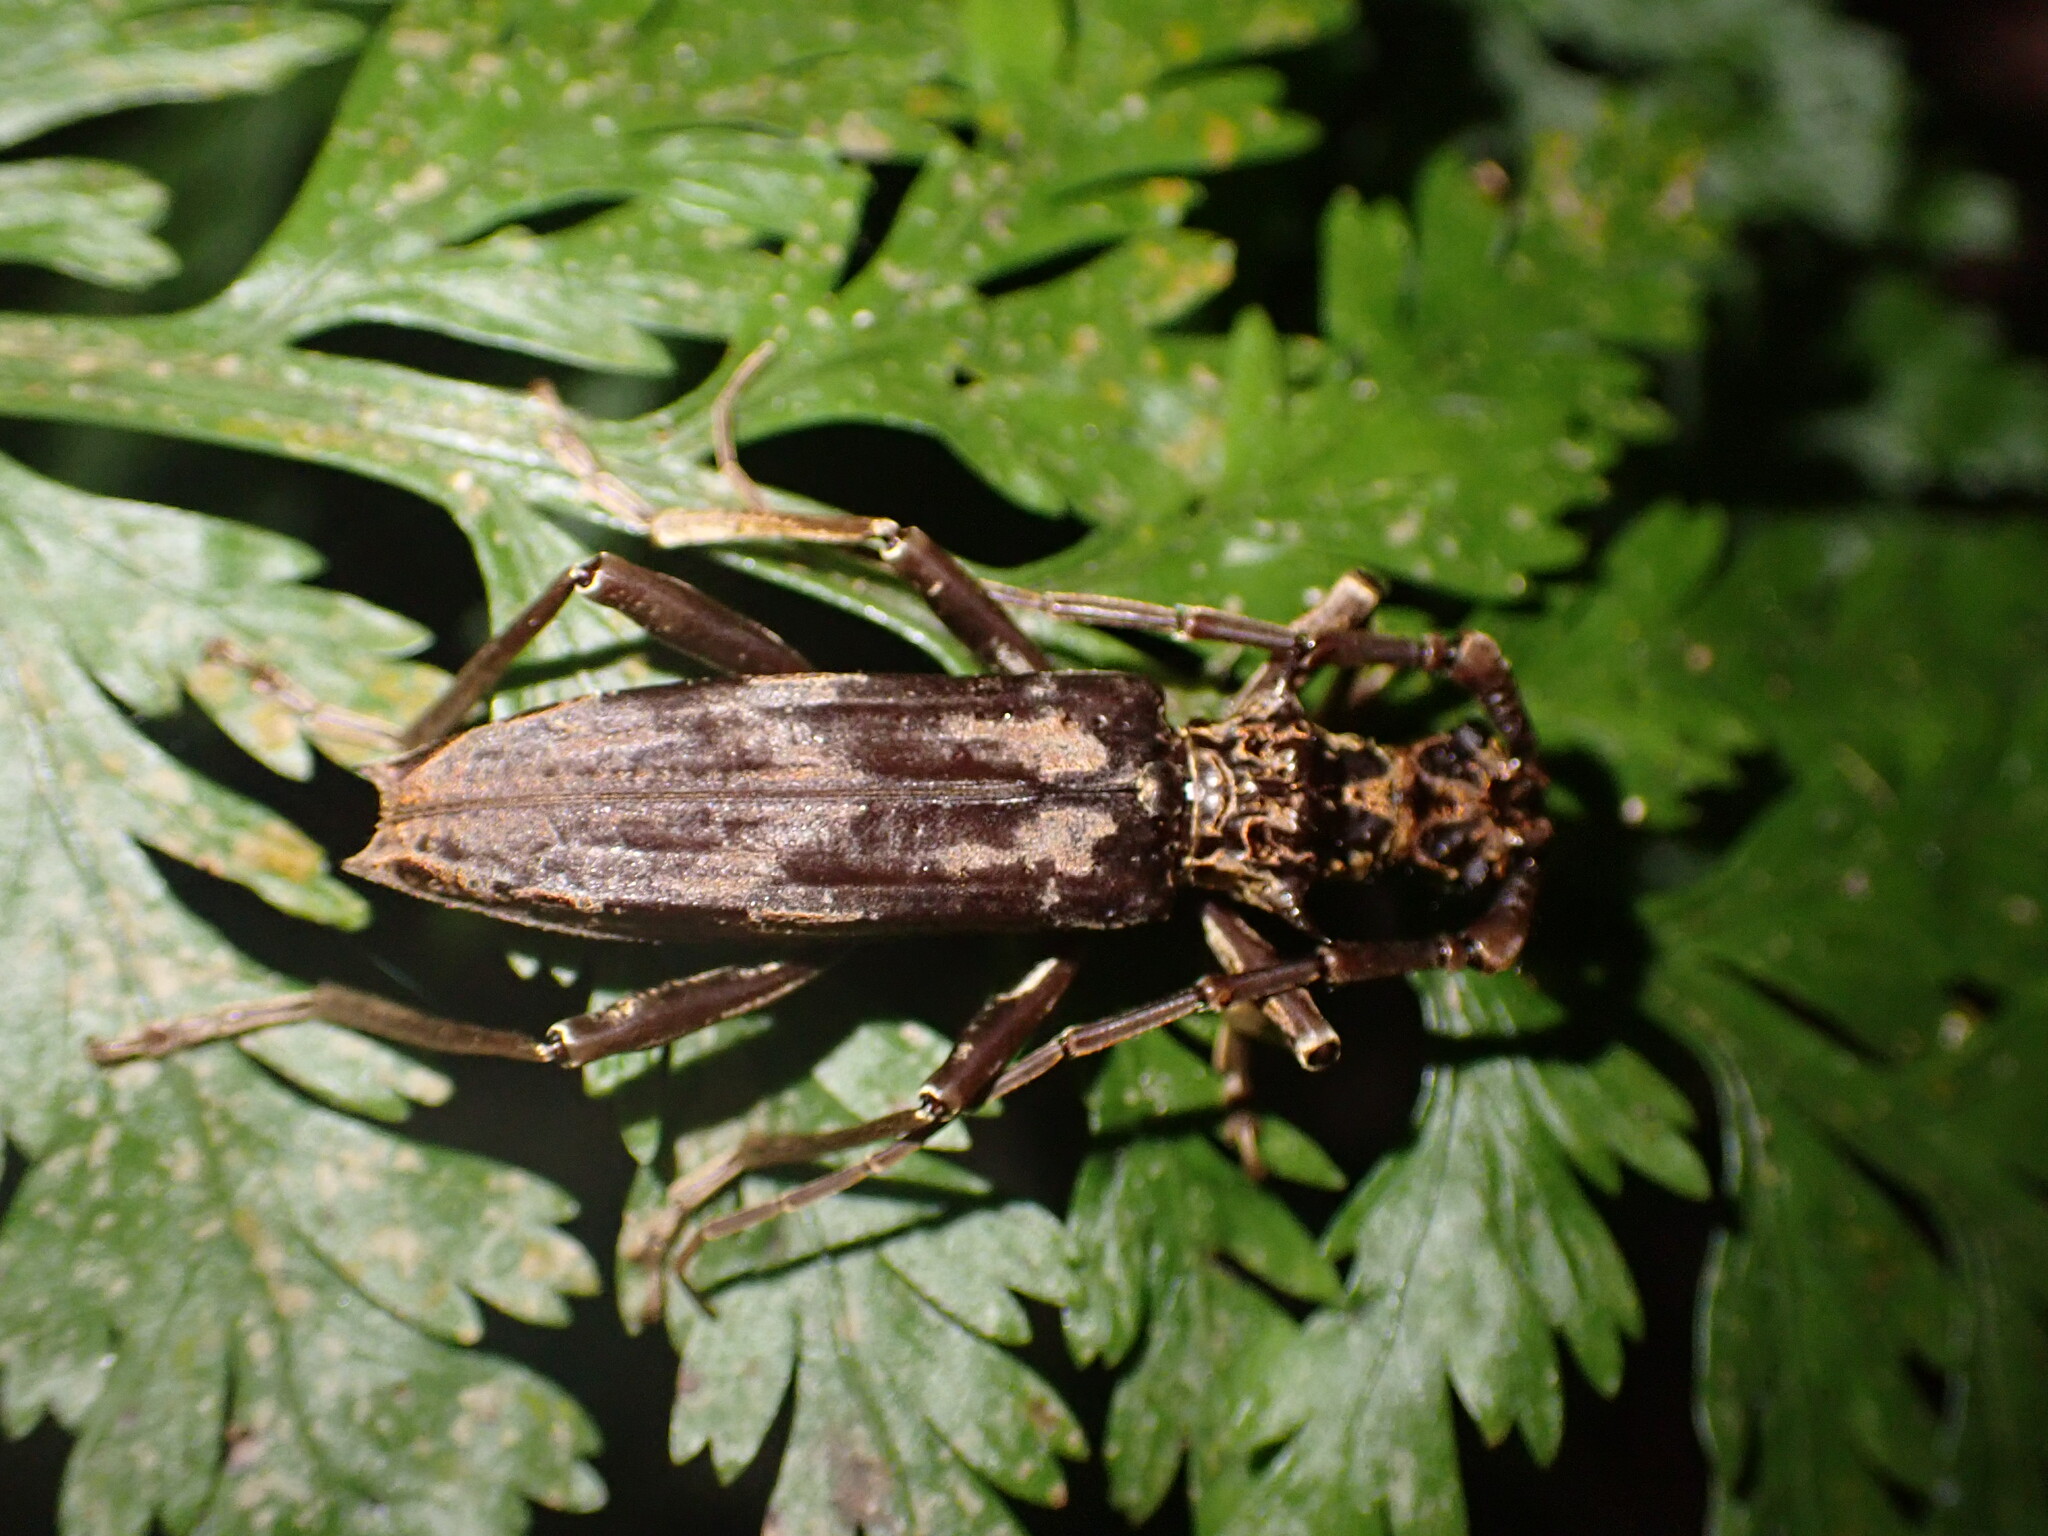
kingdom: Animalia
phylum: Arthropoda
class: Insecta
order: Coleoptera
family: Cerambycidae
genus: Blosyropus
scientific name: Blosyropus spinosus
